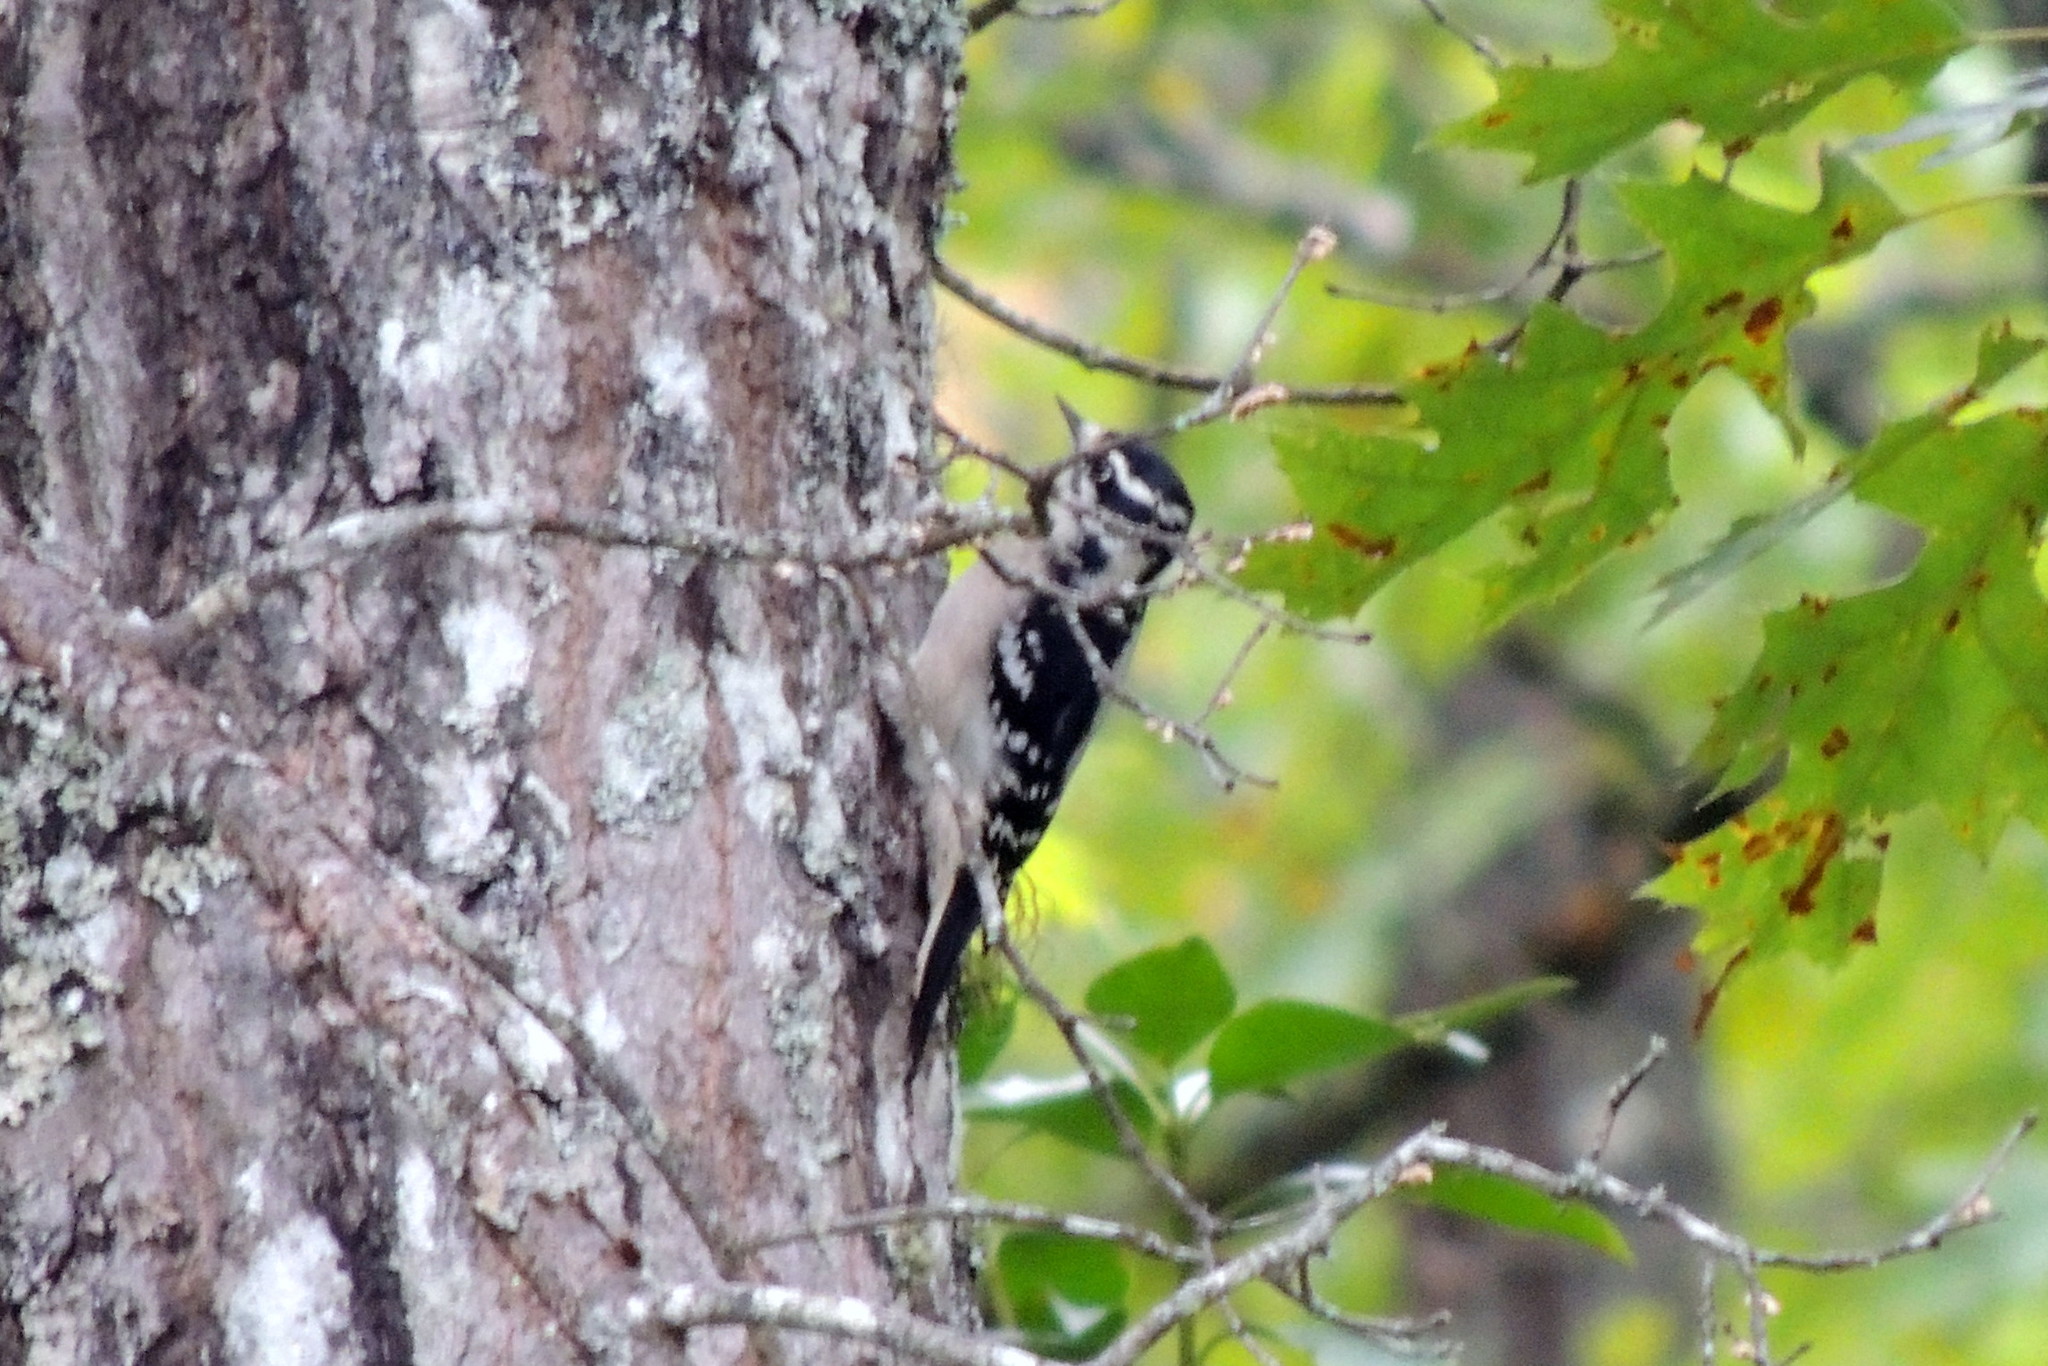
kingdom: Animalia
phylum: Chordata
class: Aves
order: Piciformes
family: Picidae
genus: Dryobates
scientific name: Dryobates pubescens
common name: Downy woodpecker
